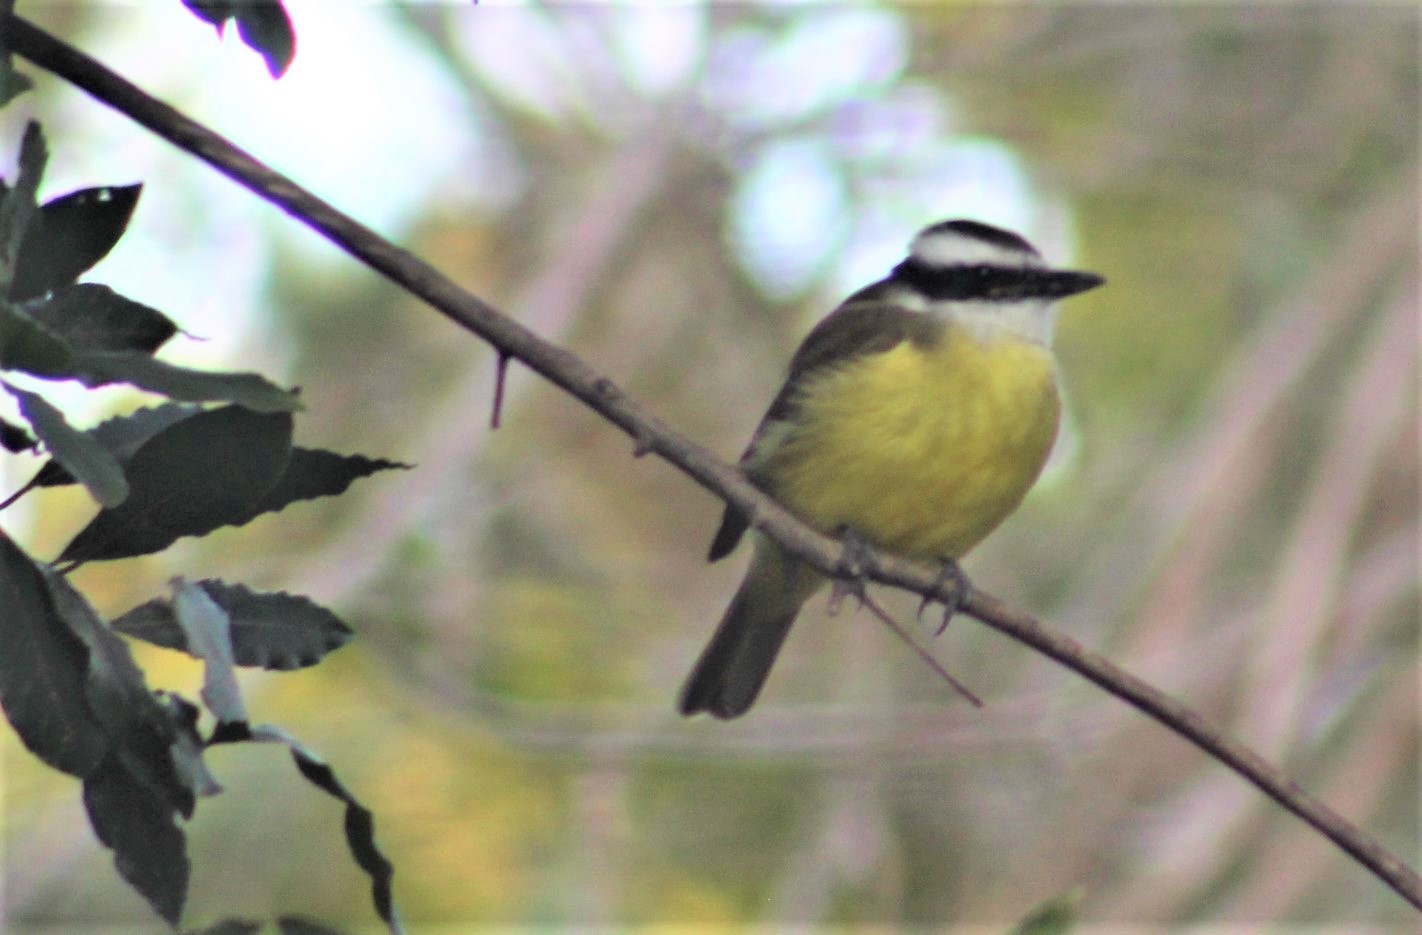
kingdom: Animalia
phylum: Chordata
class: Aves
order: Passeriformes
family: Tyrannidae
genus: Pitangus
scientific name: Pitangus sulphuratus
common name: Great kiskadee
